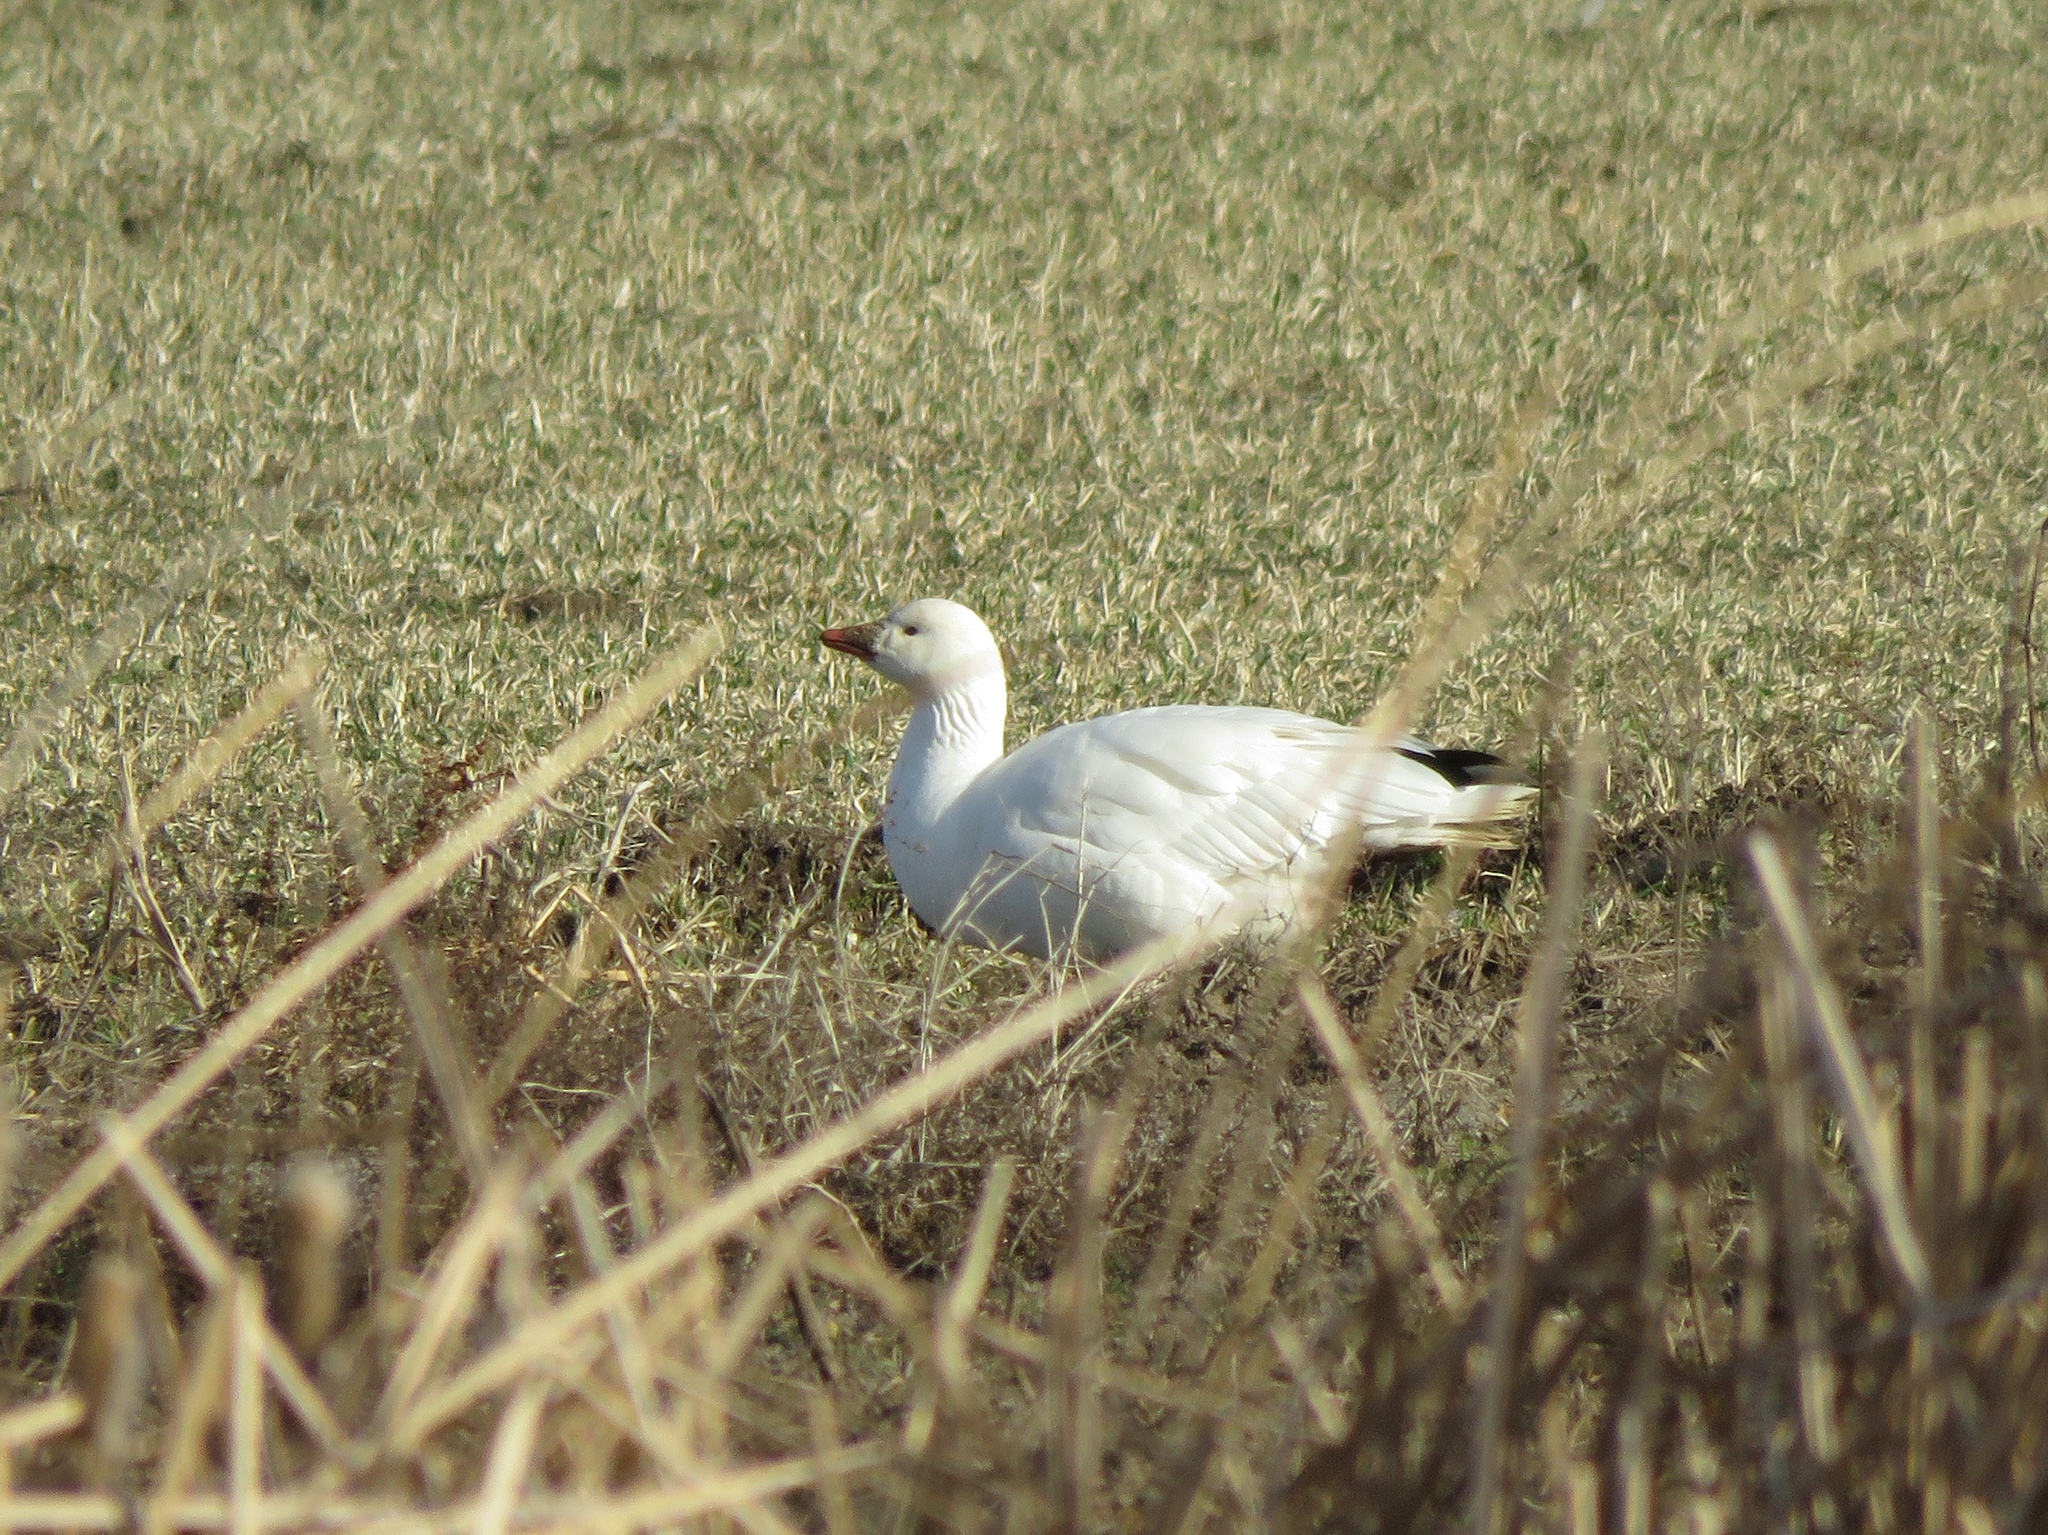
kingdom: Animalia
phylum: Chordata
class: Aves
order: Anseriformes
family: Anatidae
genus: Anser
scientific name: Anser rossii
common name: Ross's goose
